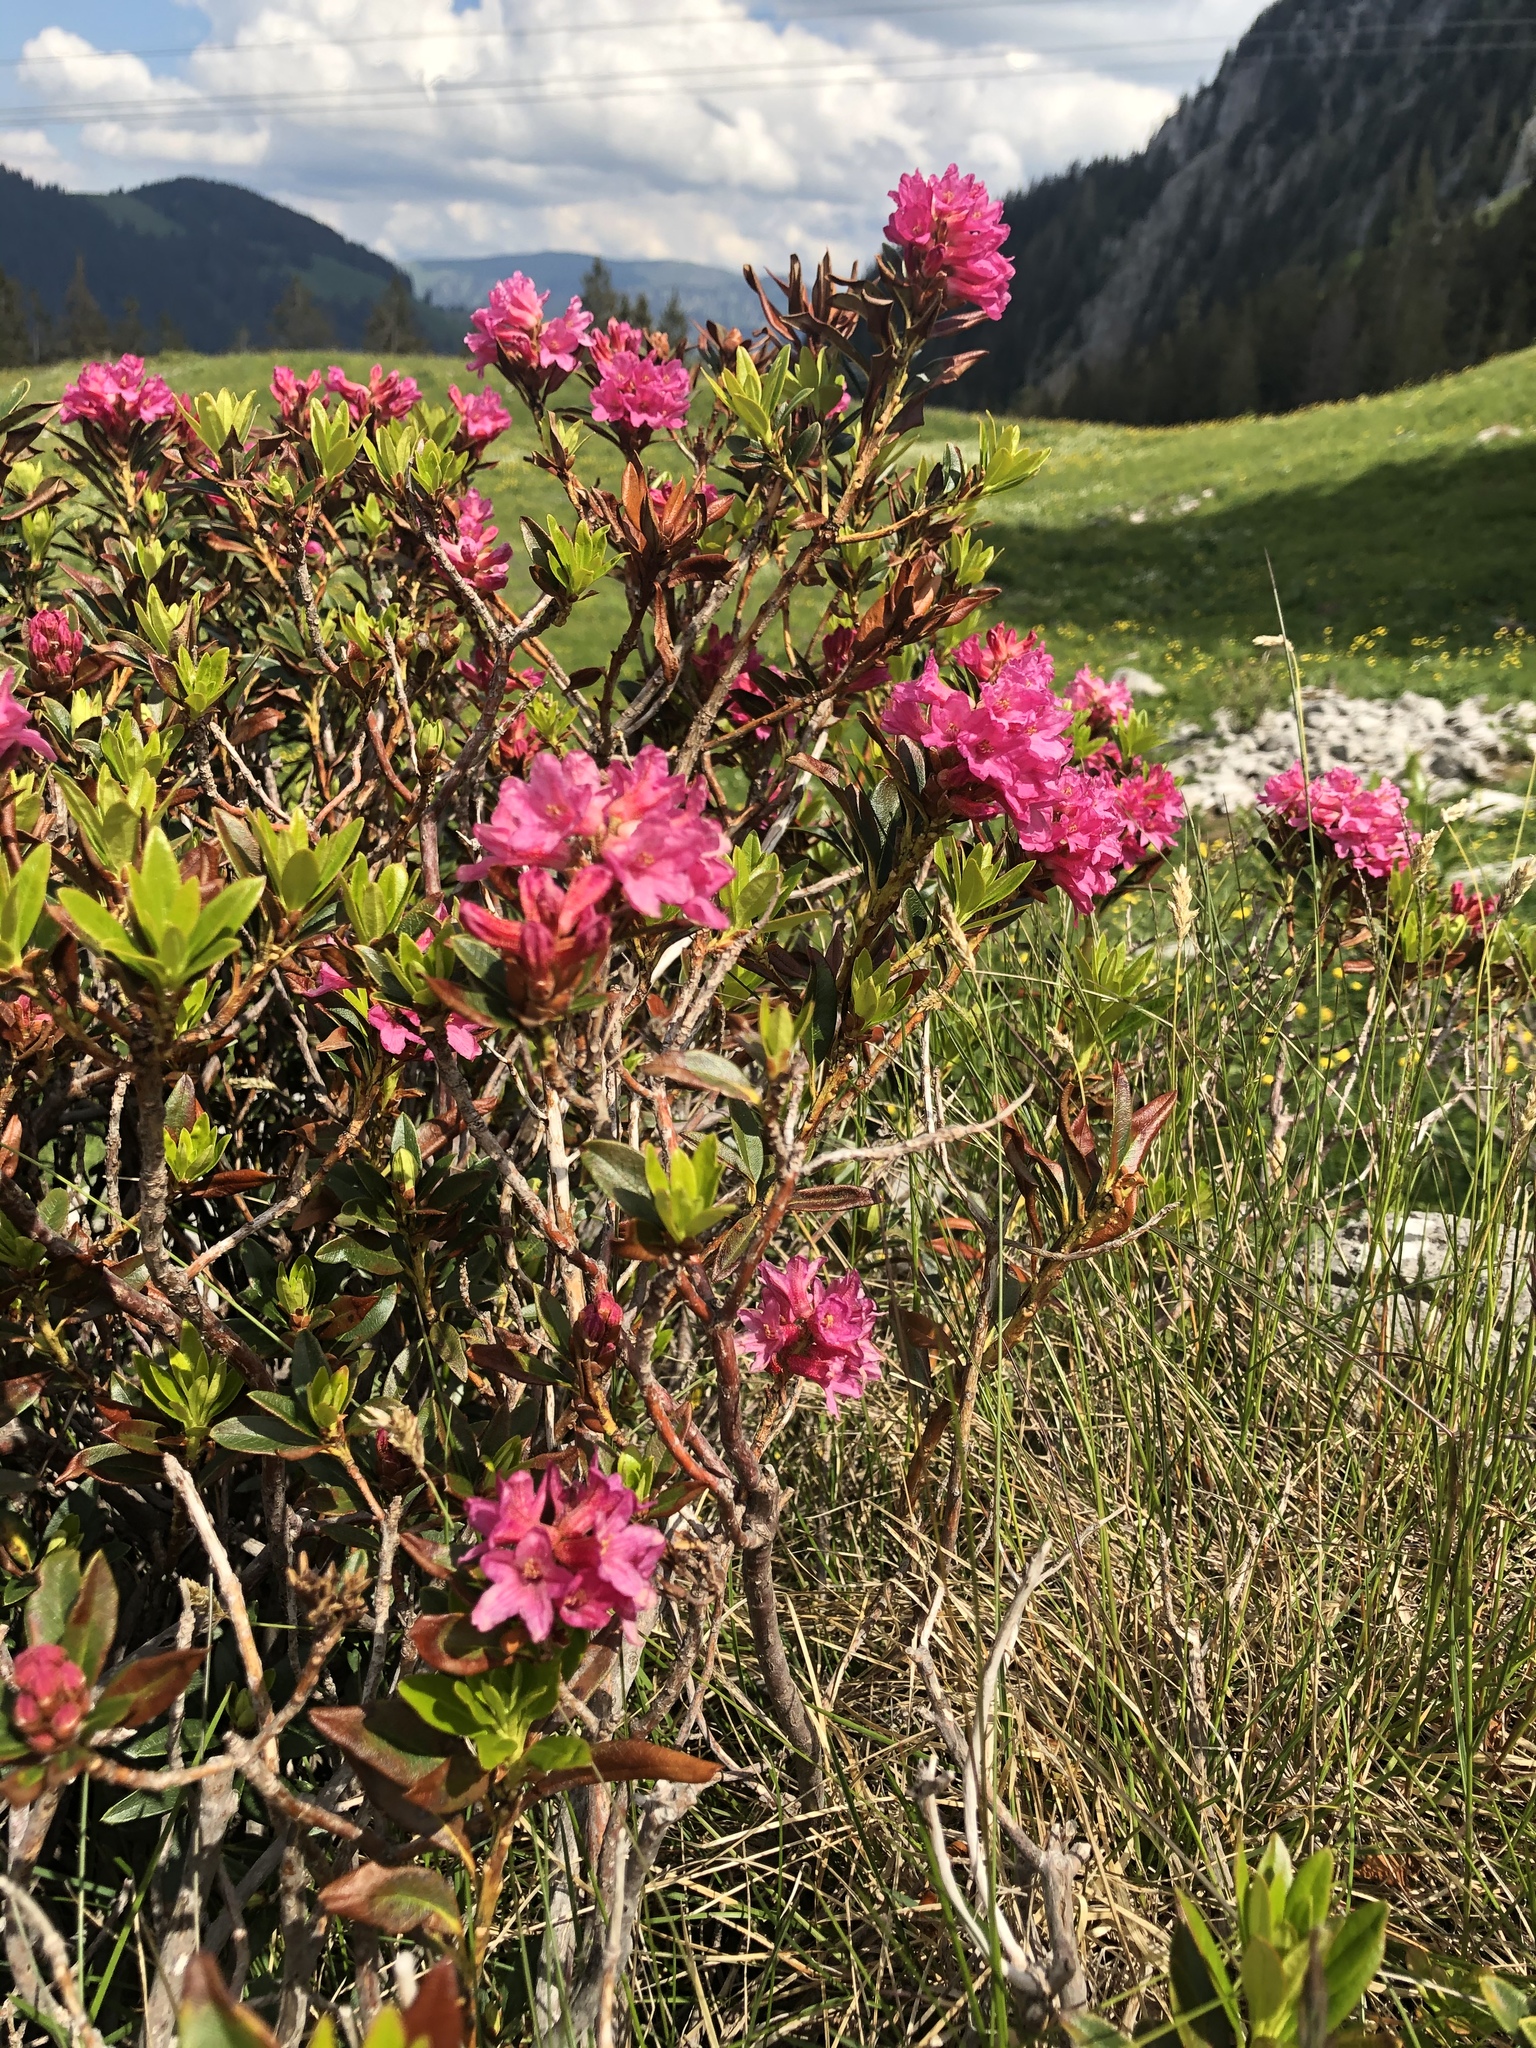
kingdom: Plantae
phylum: Tracheophyta
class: Magnoliopsida
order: Ericales
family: Ericaceae
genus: Rhododendron
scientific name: Rhododendron ferrugineum
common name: Alpenrose
